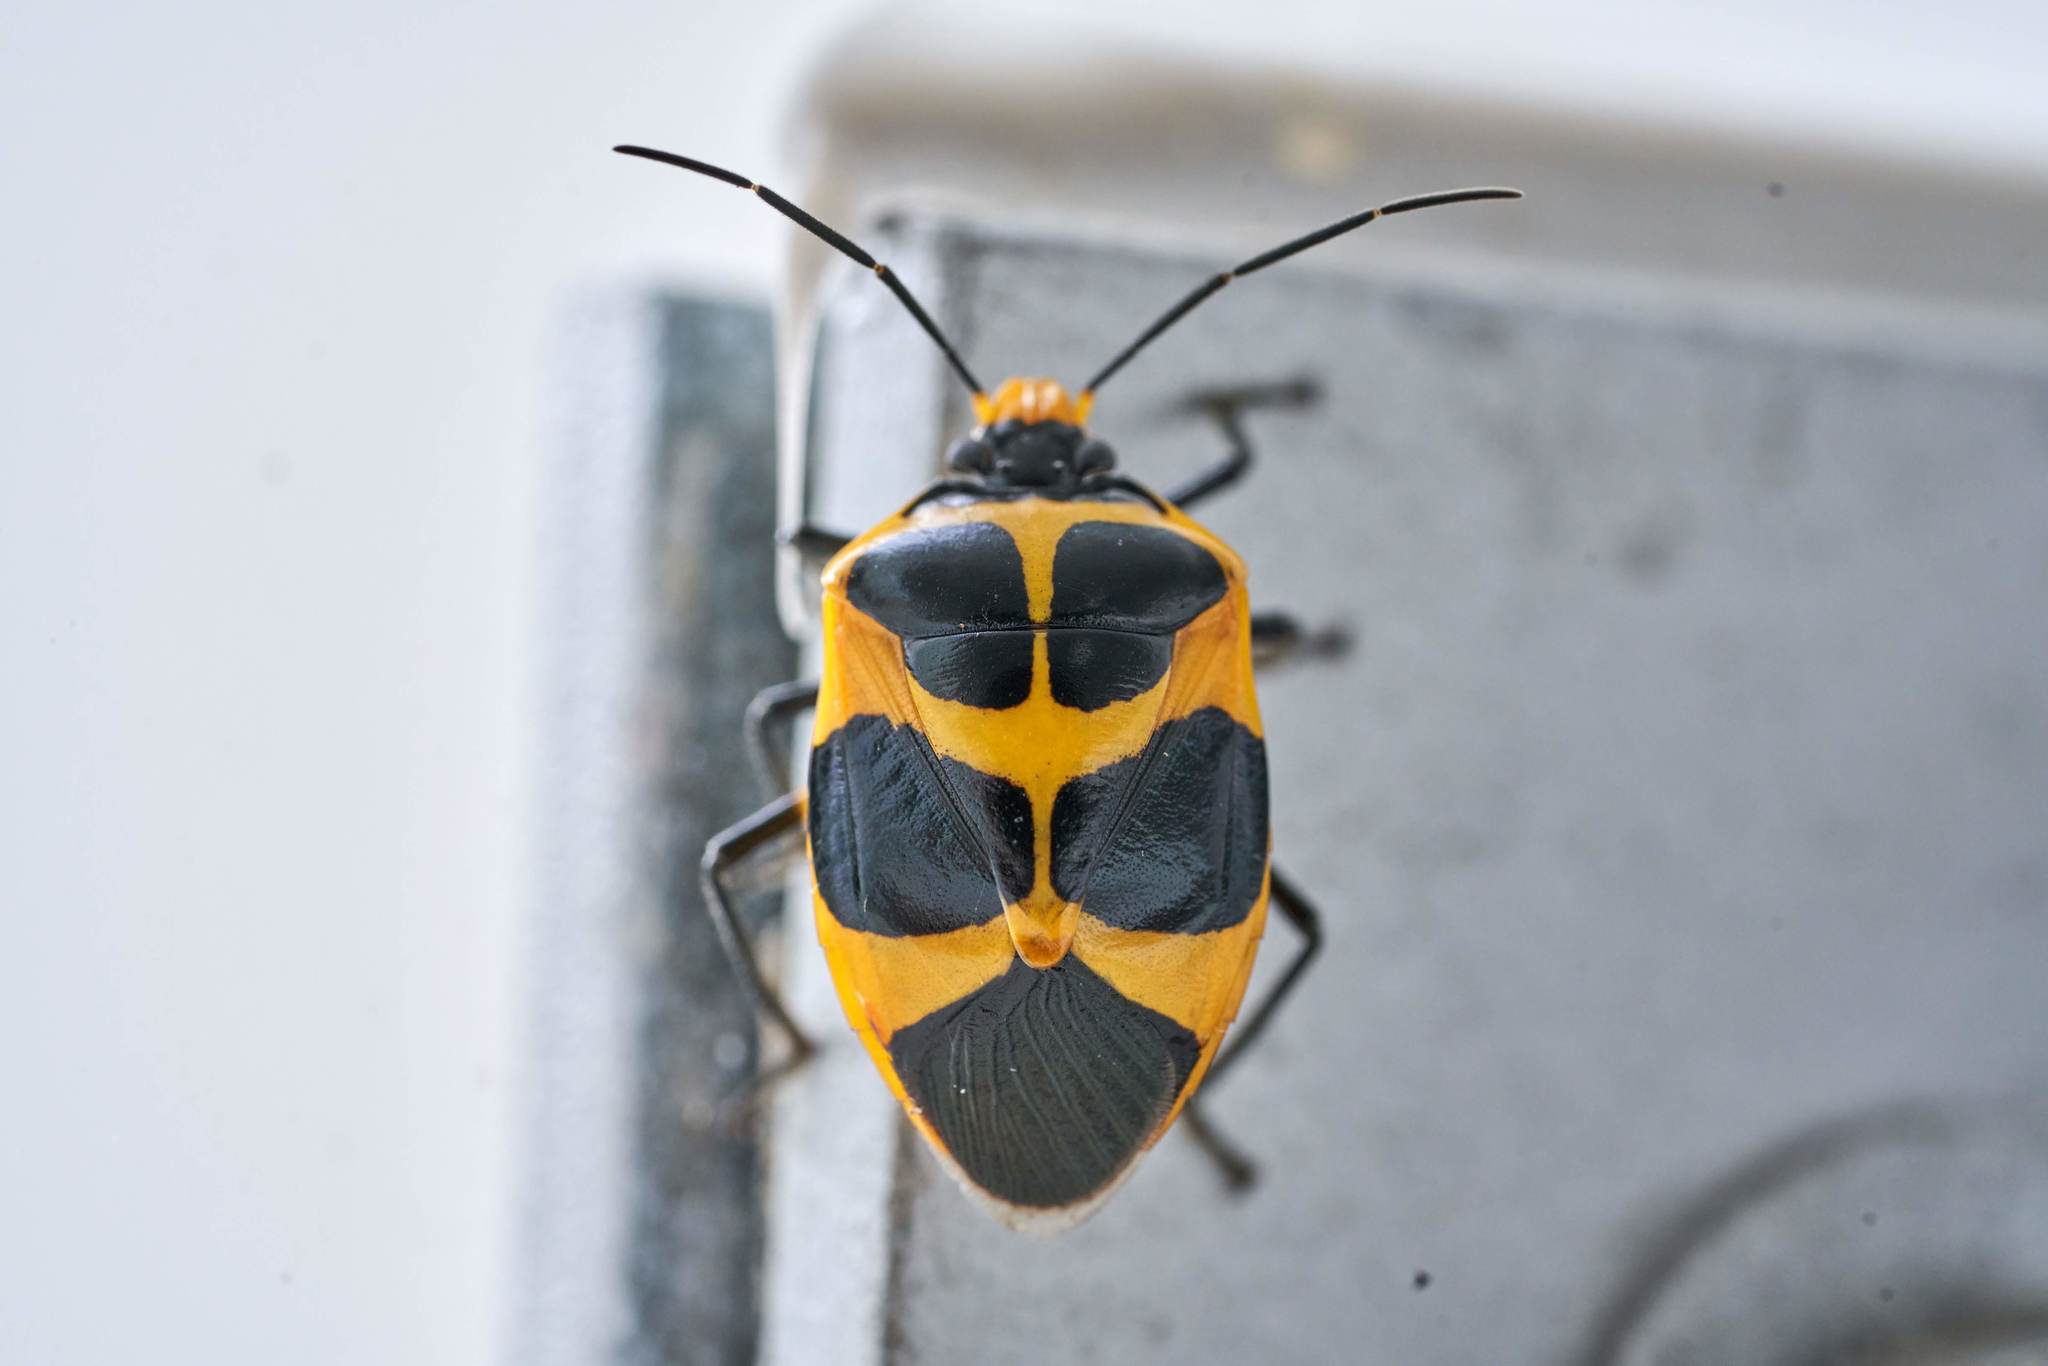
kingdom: Animalia
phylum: Arthropoda
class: Insecta
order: Hemiptera
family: Pentatomidae
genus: Arocera
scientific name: Arocera apta
